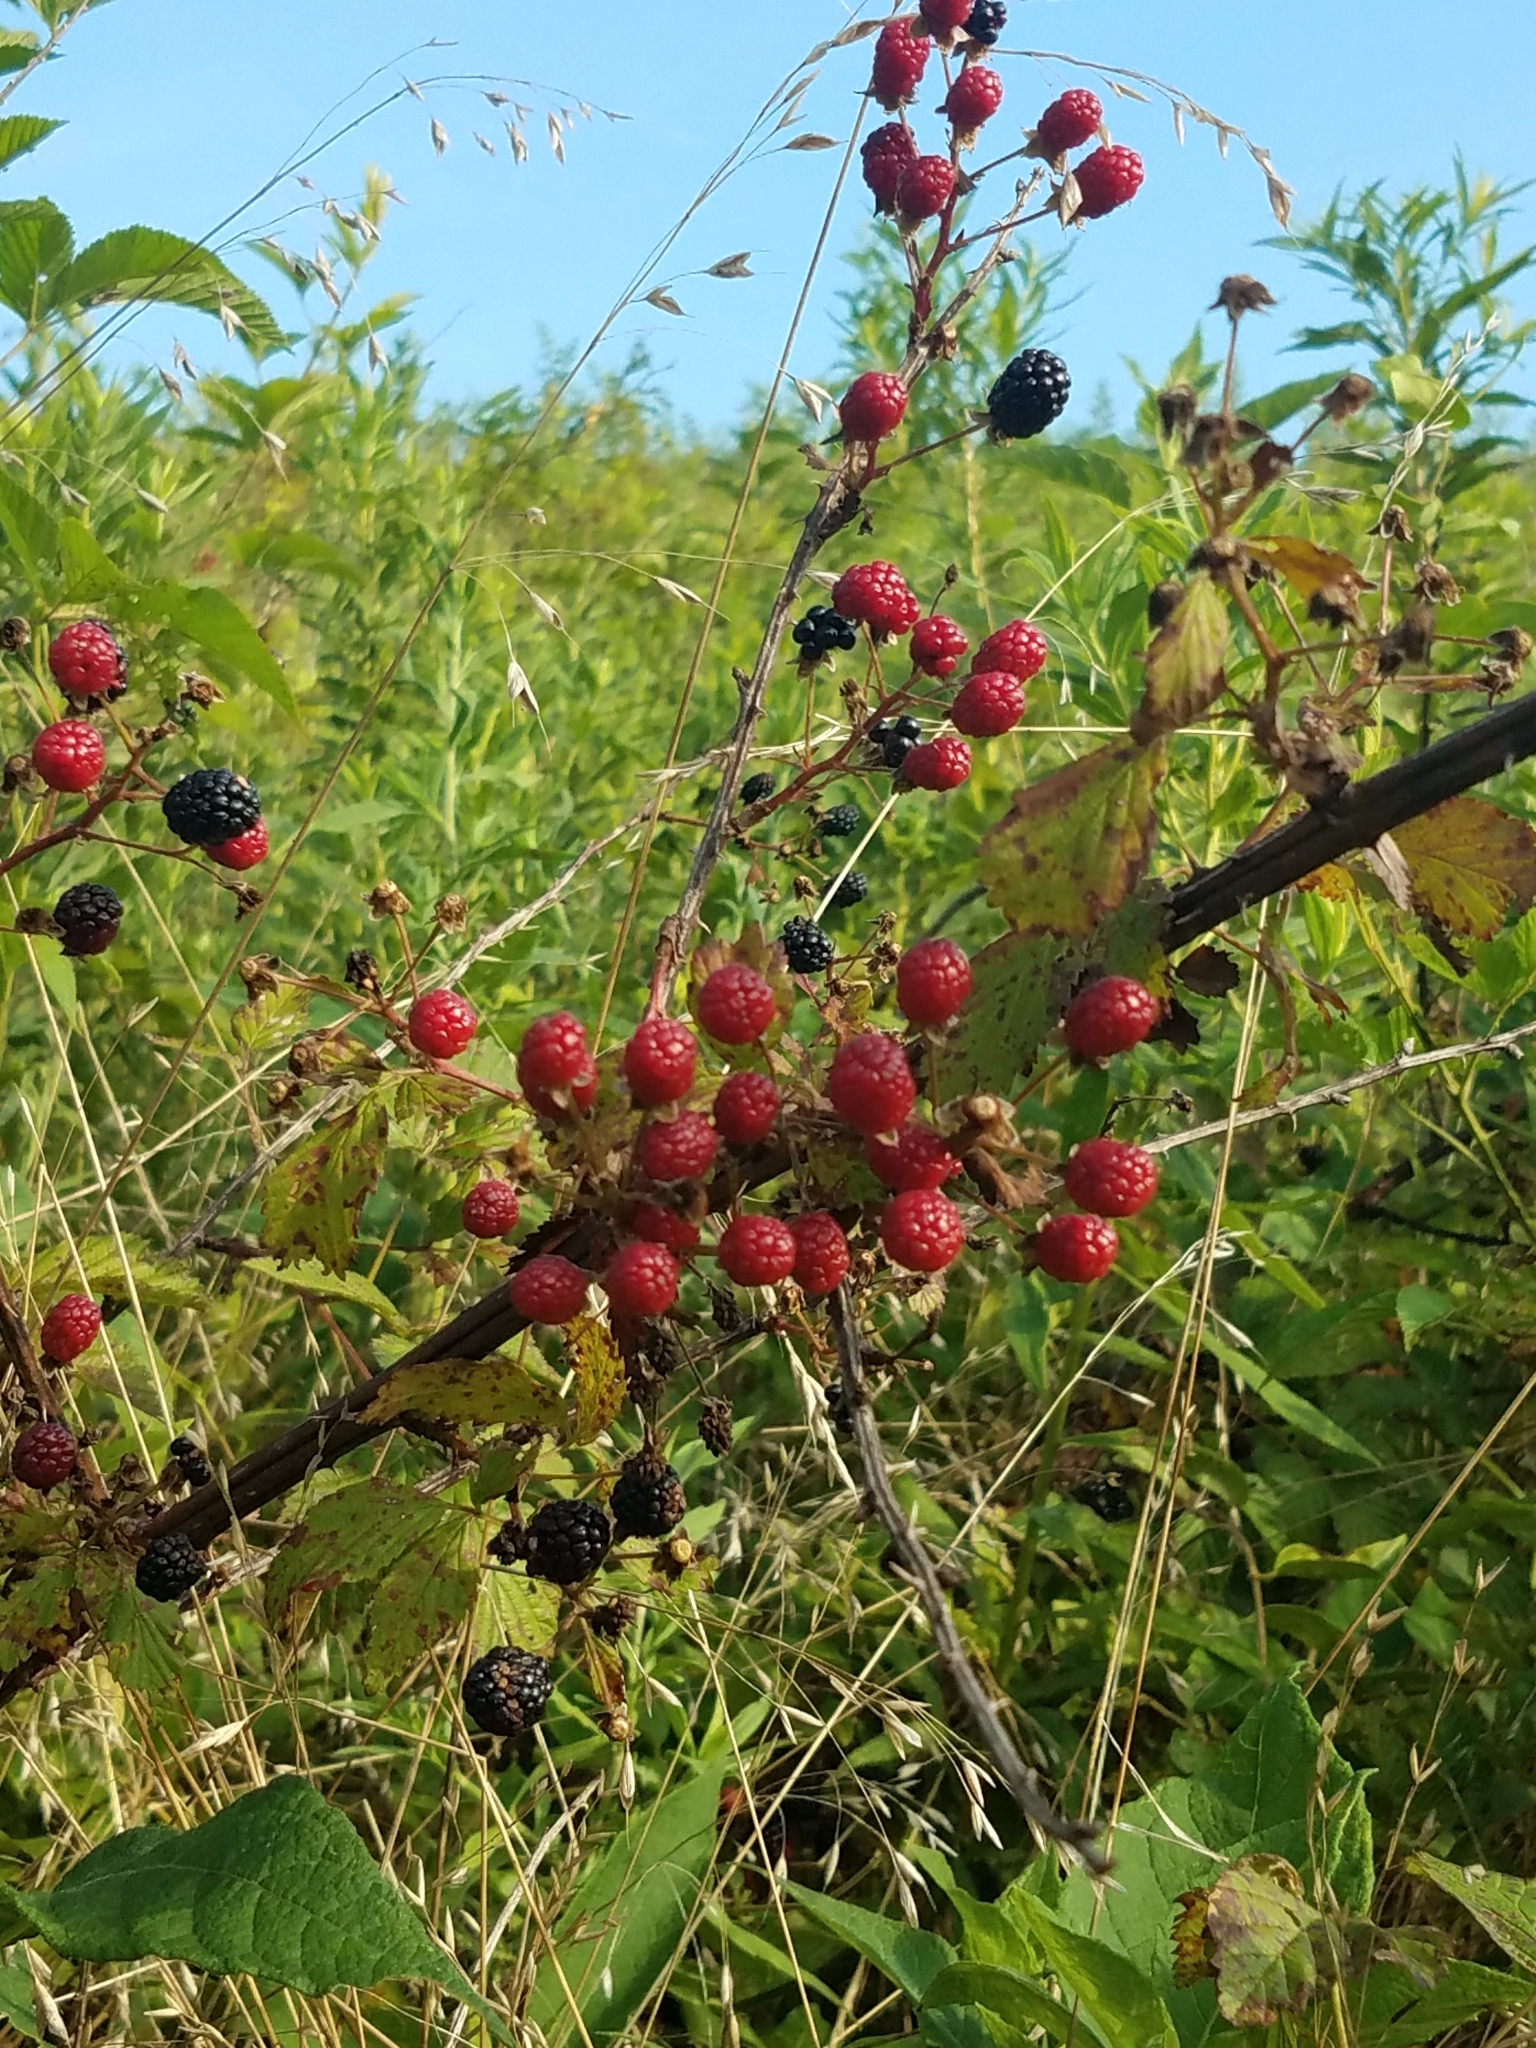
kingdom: Plantae
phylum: Tracheophyta
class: Magnoliopsida
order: Rosales
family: Rosaceae
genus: Rubus
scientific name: Rubus allegheniensis
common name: Allegheny blackberry
